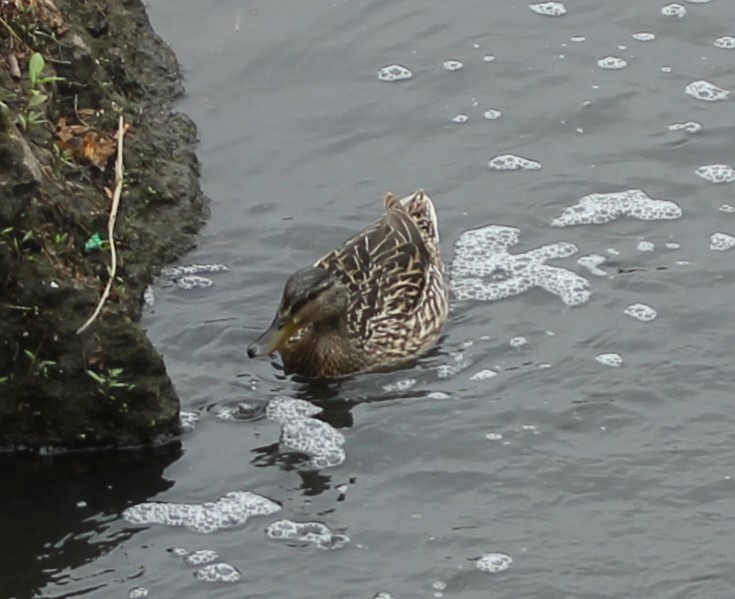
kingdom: Animalia
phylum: Chordata
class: Aves
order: Anseriformes
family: Anatidae
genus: Anas
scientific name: Anas platyrhynchos
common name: Mallard
